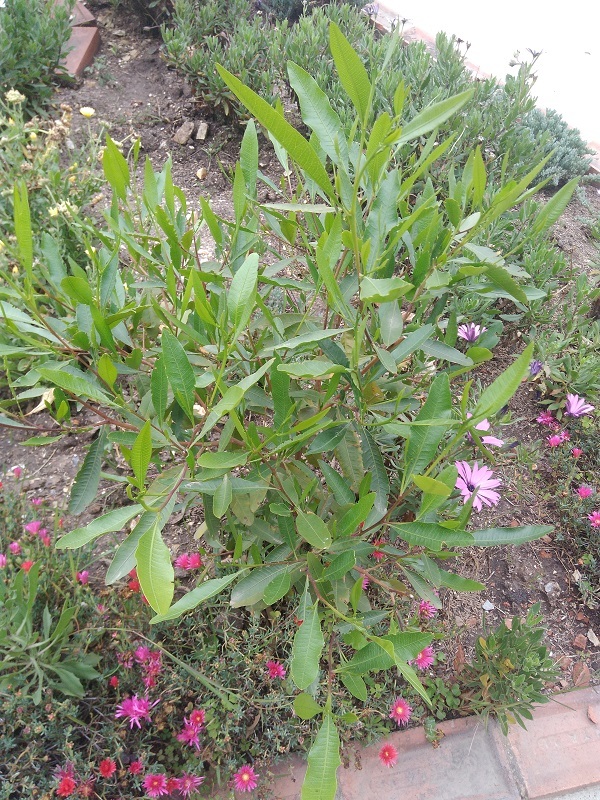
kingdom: Plantae
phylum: Tracheophyta
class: Magnoliopsida
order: Sapindales
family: Sapindaceae
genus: Dodonaea
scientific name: Dodonaea viscosa
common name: Hopbush
